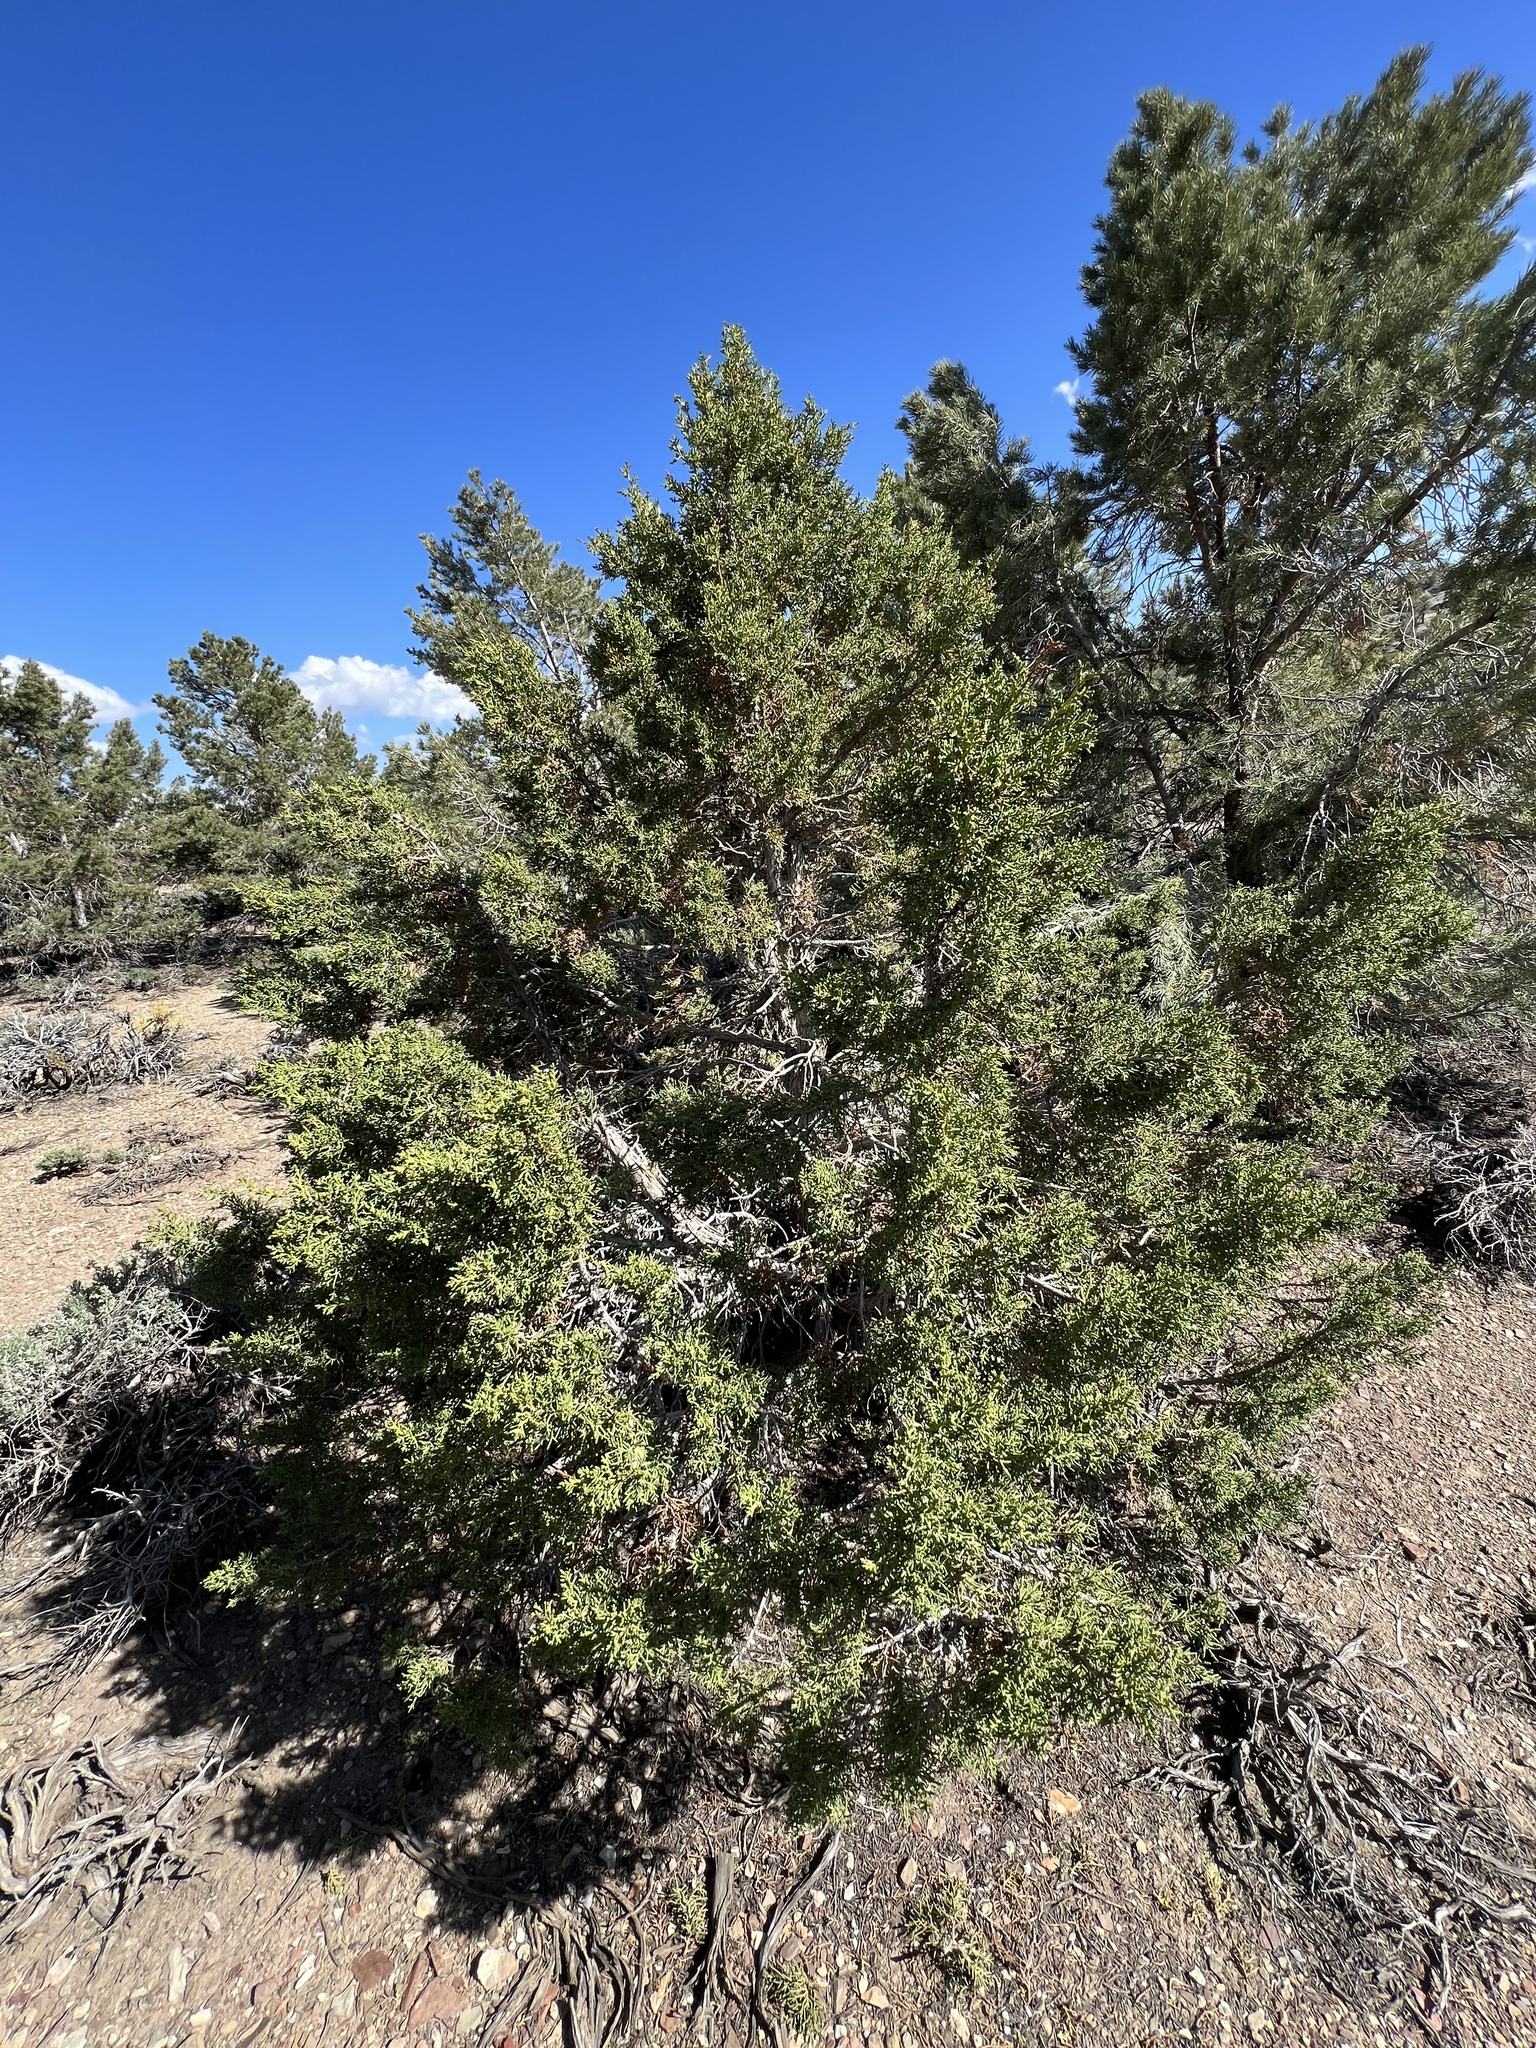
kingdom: Plantae
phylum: Tracheophyta
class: Pinopsida
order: Pinales
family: Cupressaceae
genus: Juniperus
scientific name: Juniperus osteosperma
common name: Utah juniper
